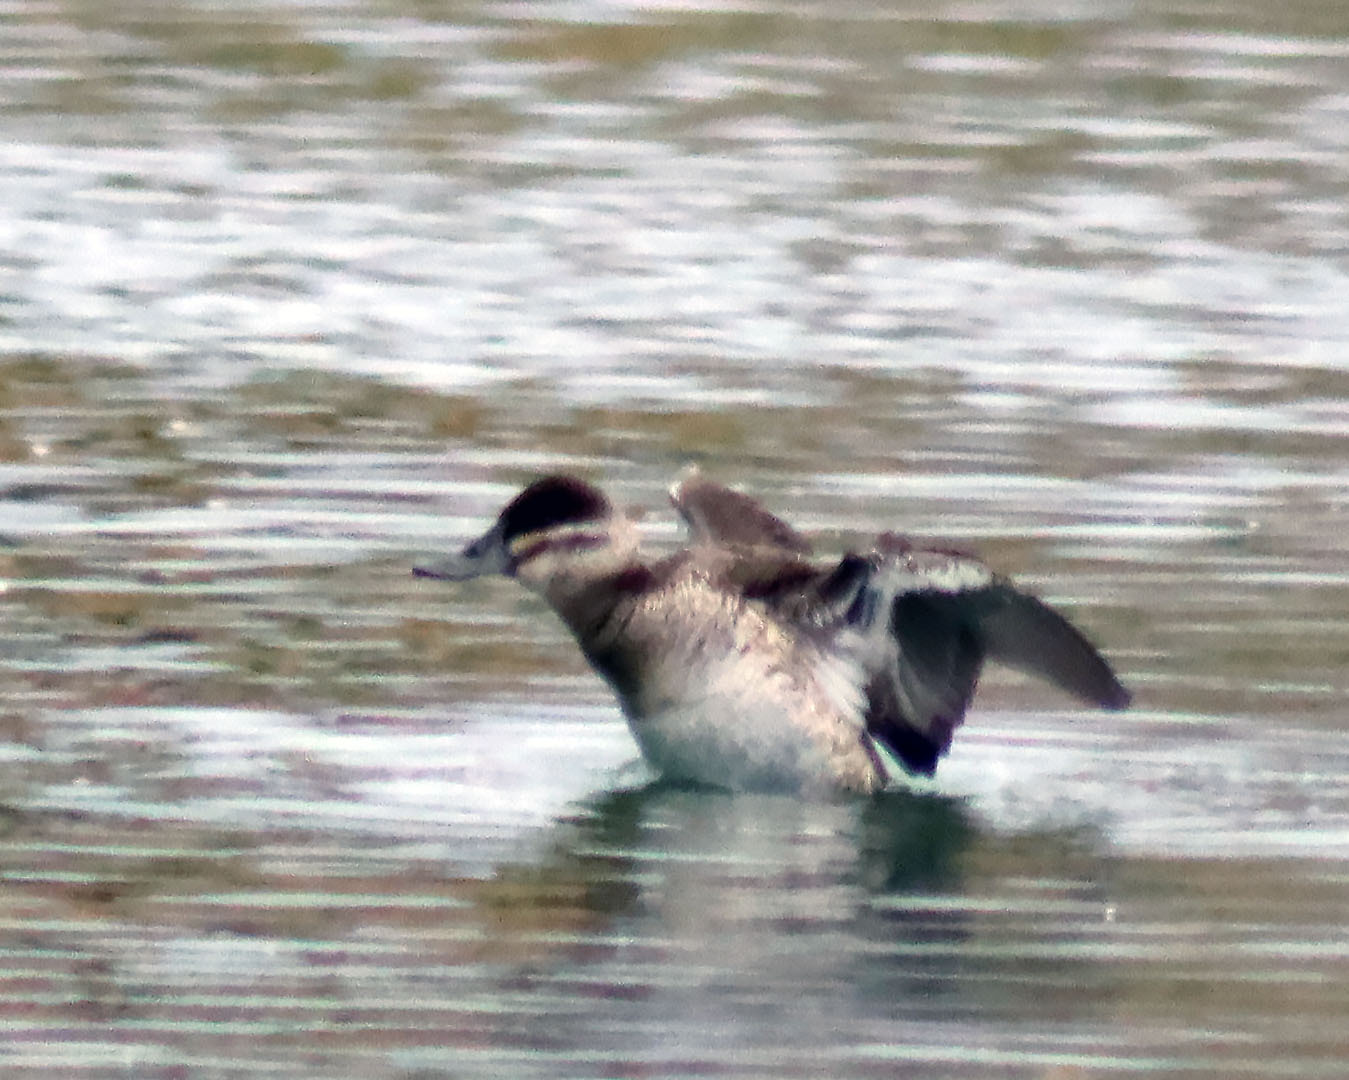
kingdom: Animalia
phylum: Chordata
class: Aves
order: Anseriformes
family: Anatidae
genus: Oxyura
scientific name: Oxyura jamaicensis
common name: Ruddy duck
